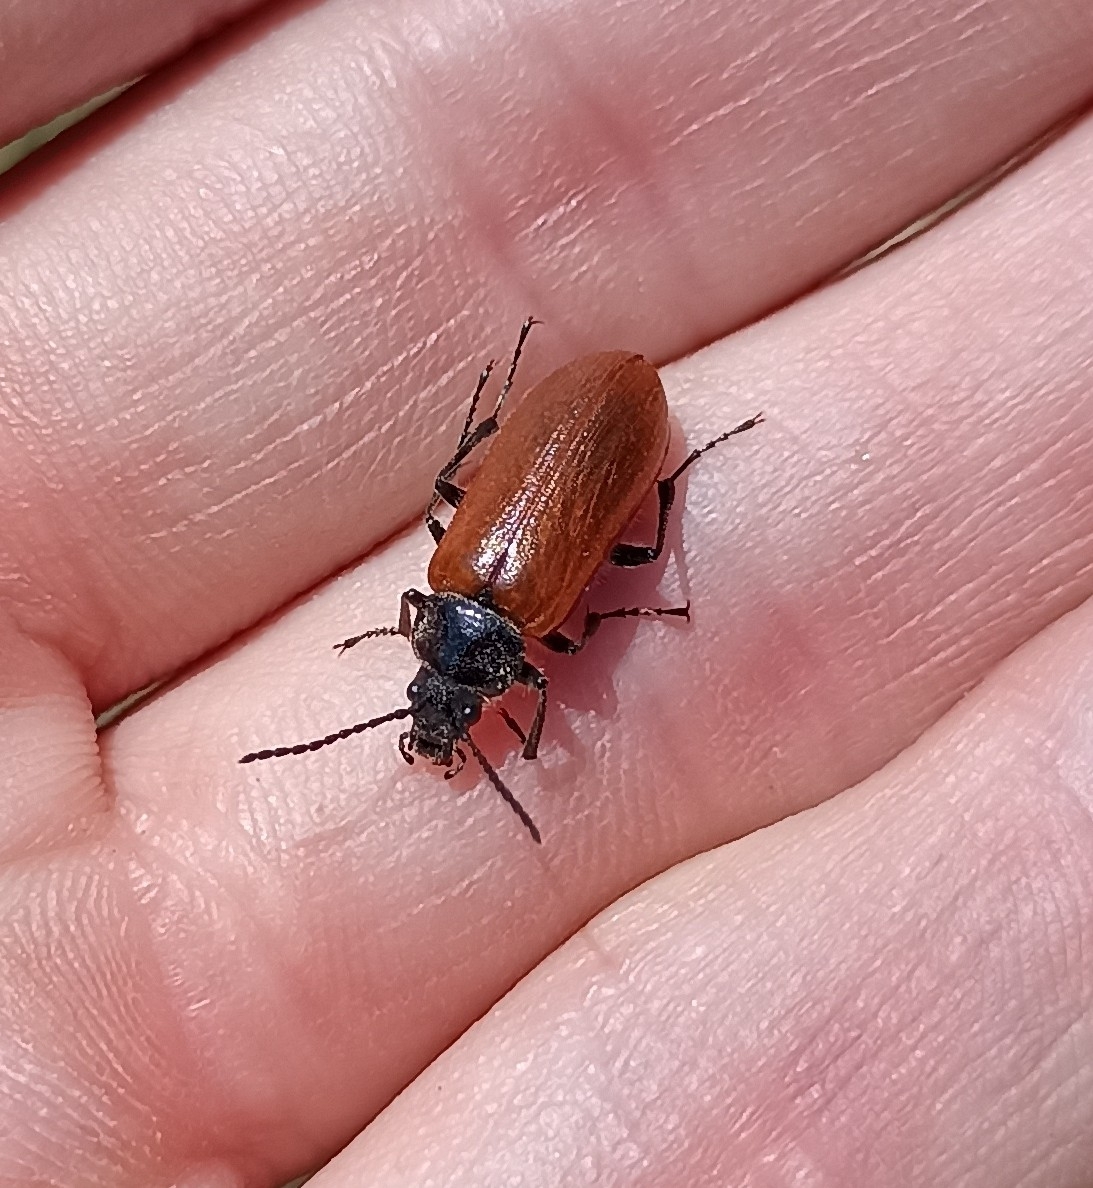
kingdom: Animalia
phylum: Arthropoda
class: Insecta
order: Coleoptera
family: Tenebrionidae
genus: Omophlus
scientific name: Omophlus lepturoides
